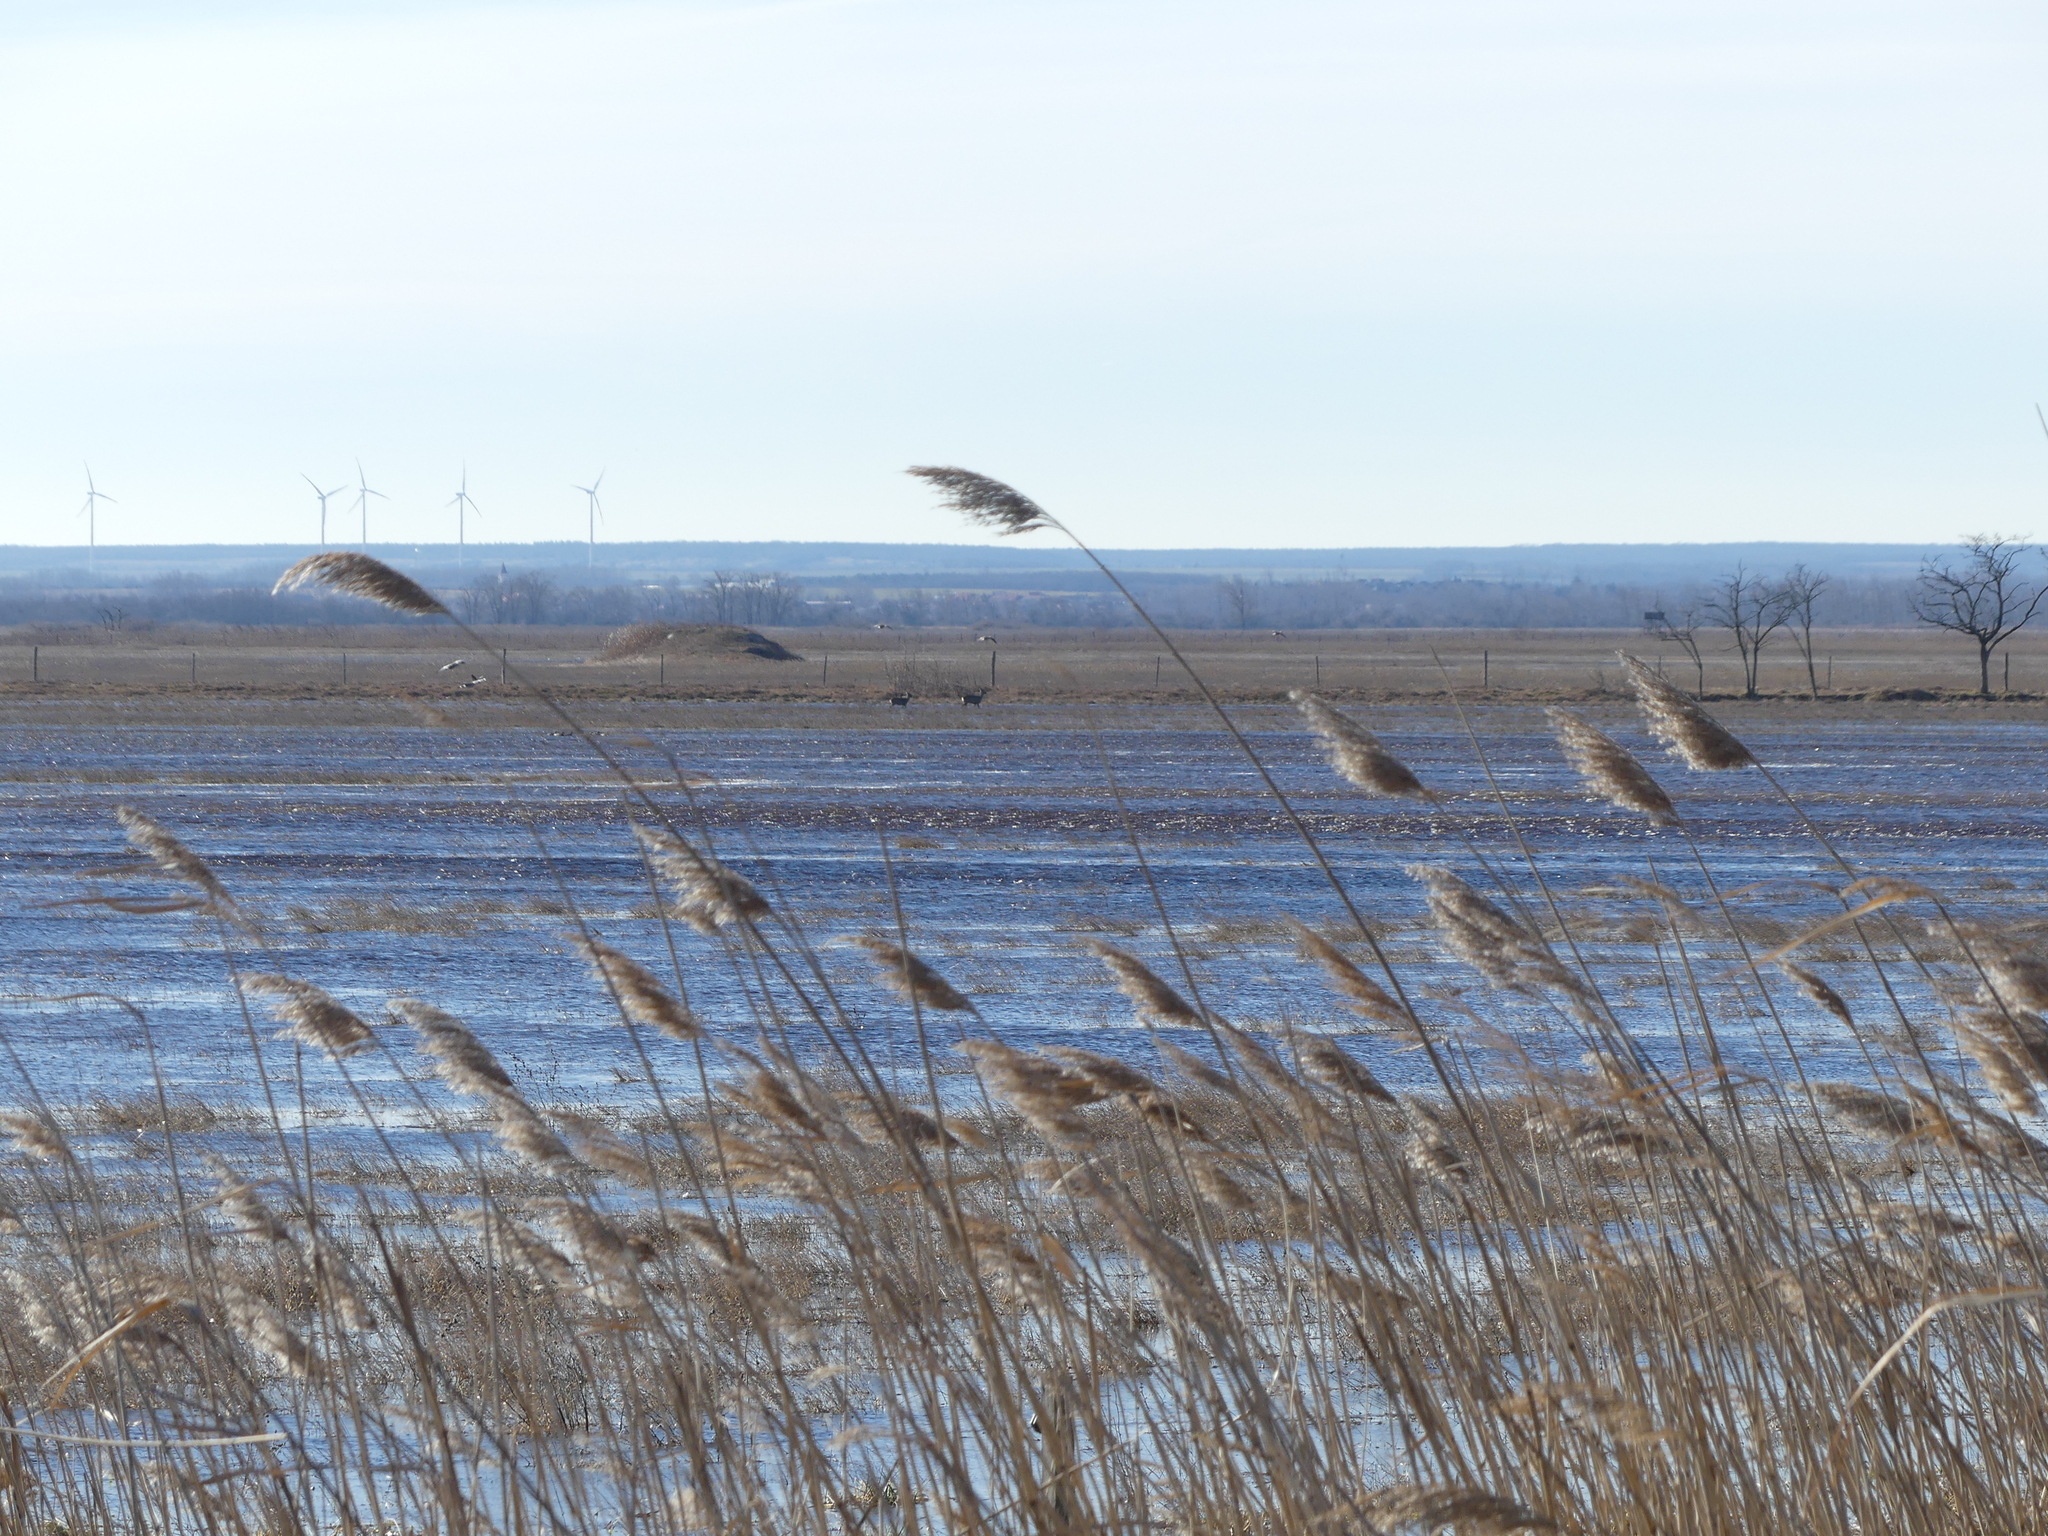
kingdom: Plantae
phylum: Tracheophyta
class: Liliopsida
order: Poales
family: Poaceae
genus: Phragmites
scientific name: Phragmites australis
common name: Common reed
